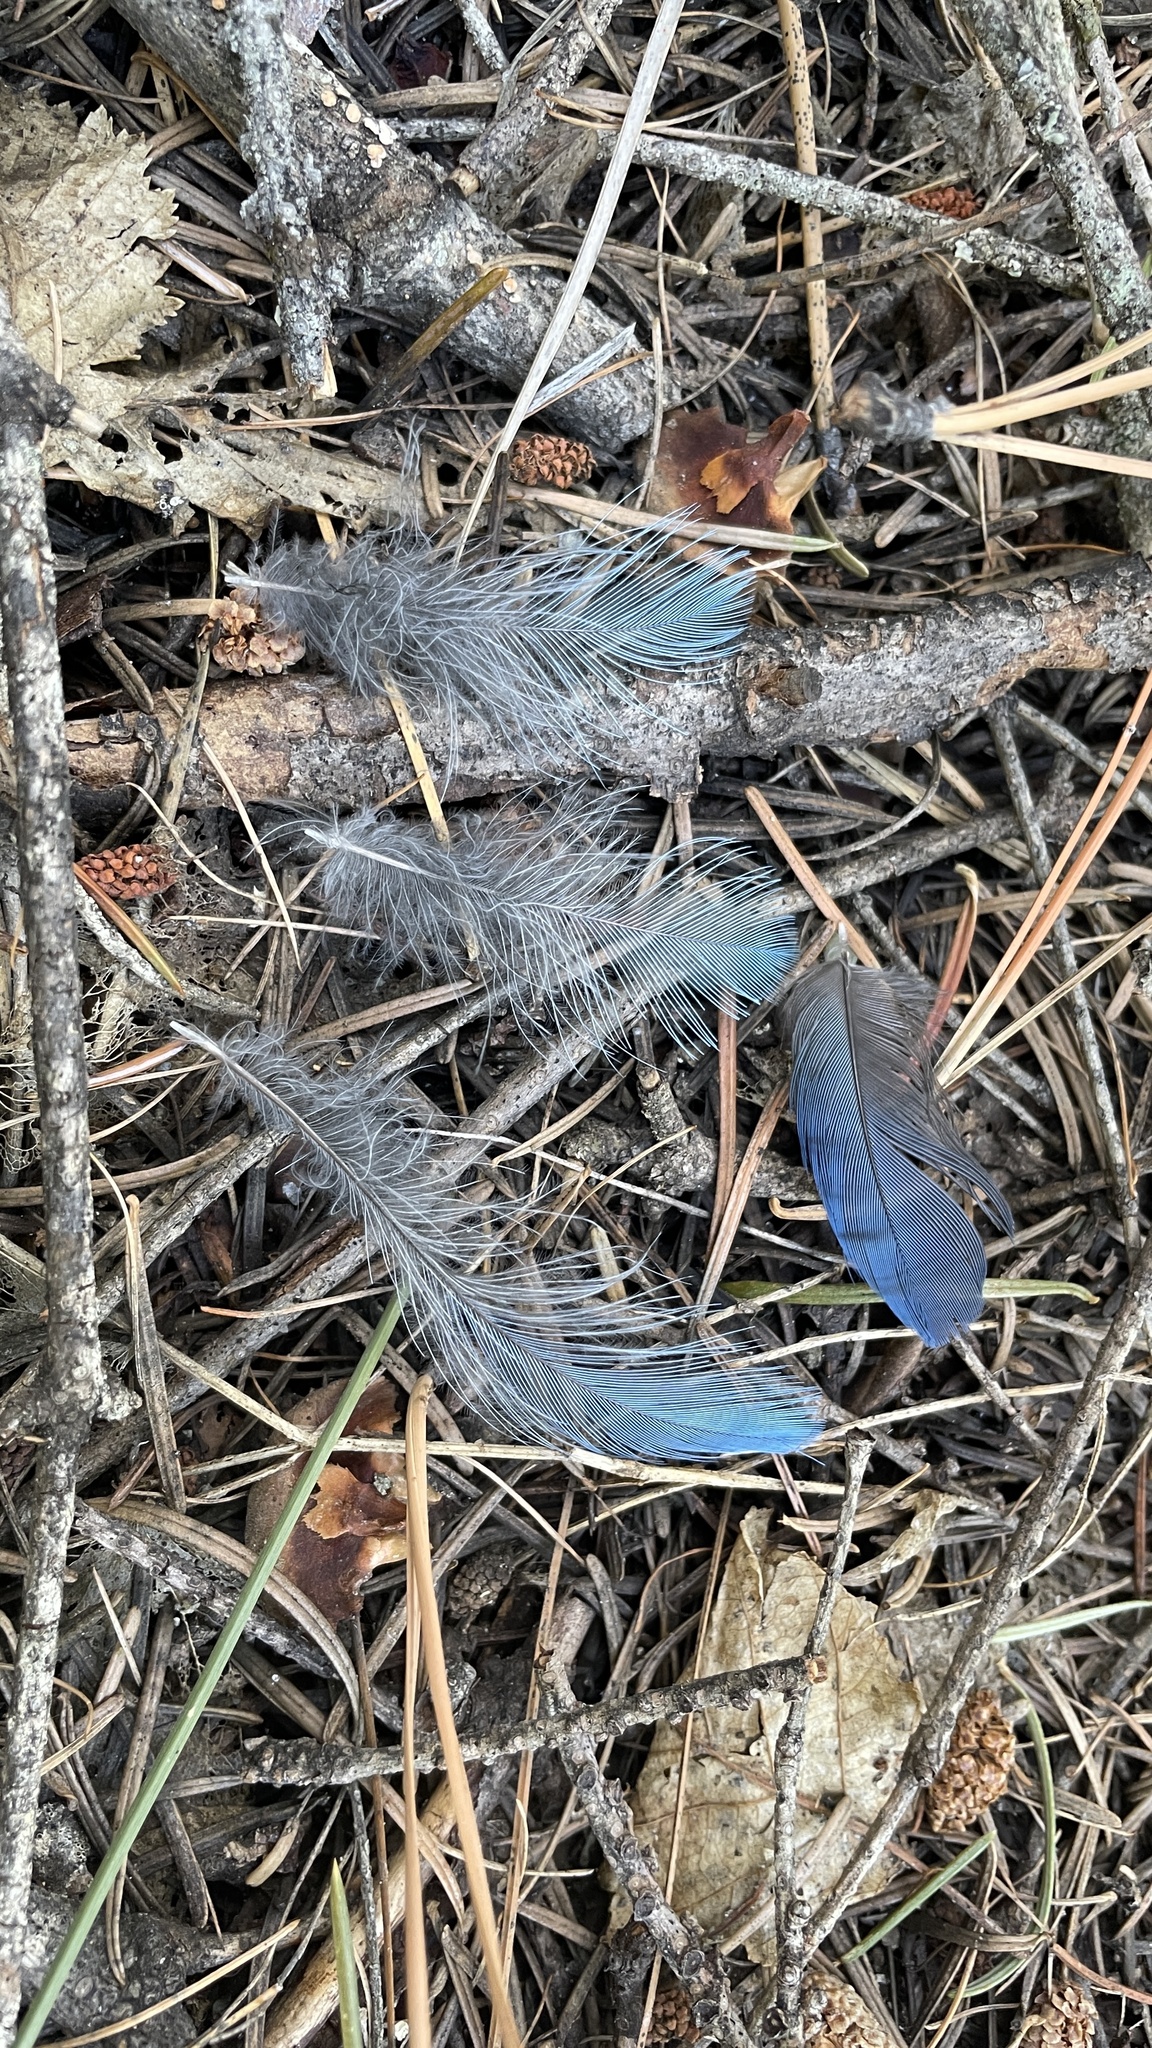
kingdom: Animalia
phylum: Chordata
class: Aves
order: Passeriformes
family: Corvidae
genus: Cyanocitta
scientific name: Cyanocitta stelleri
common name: Steller's jay
